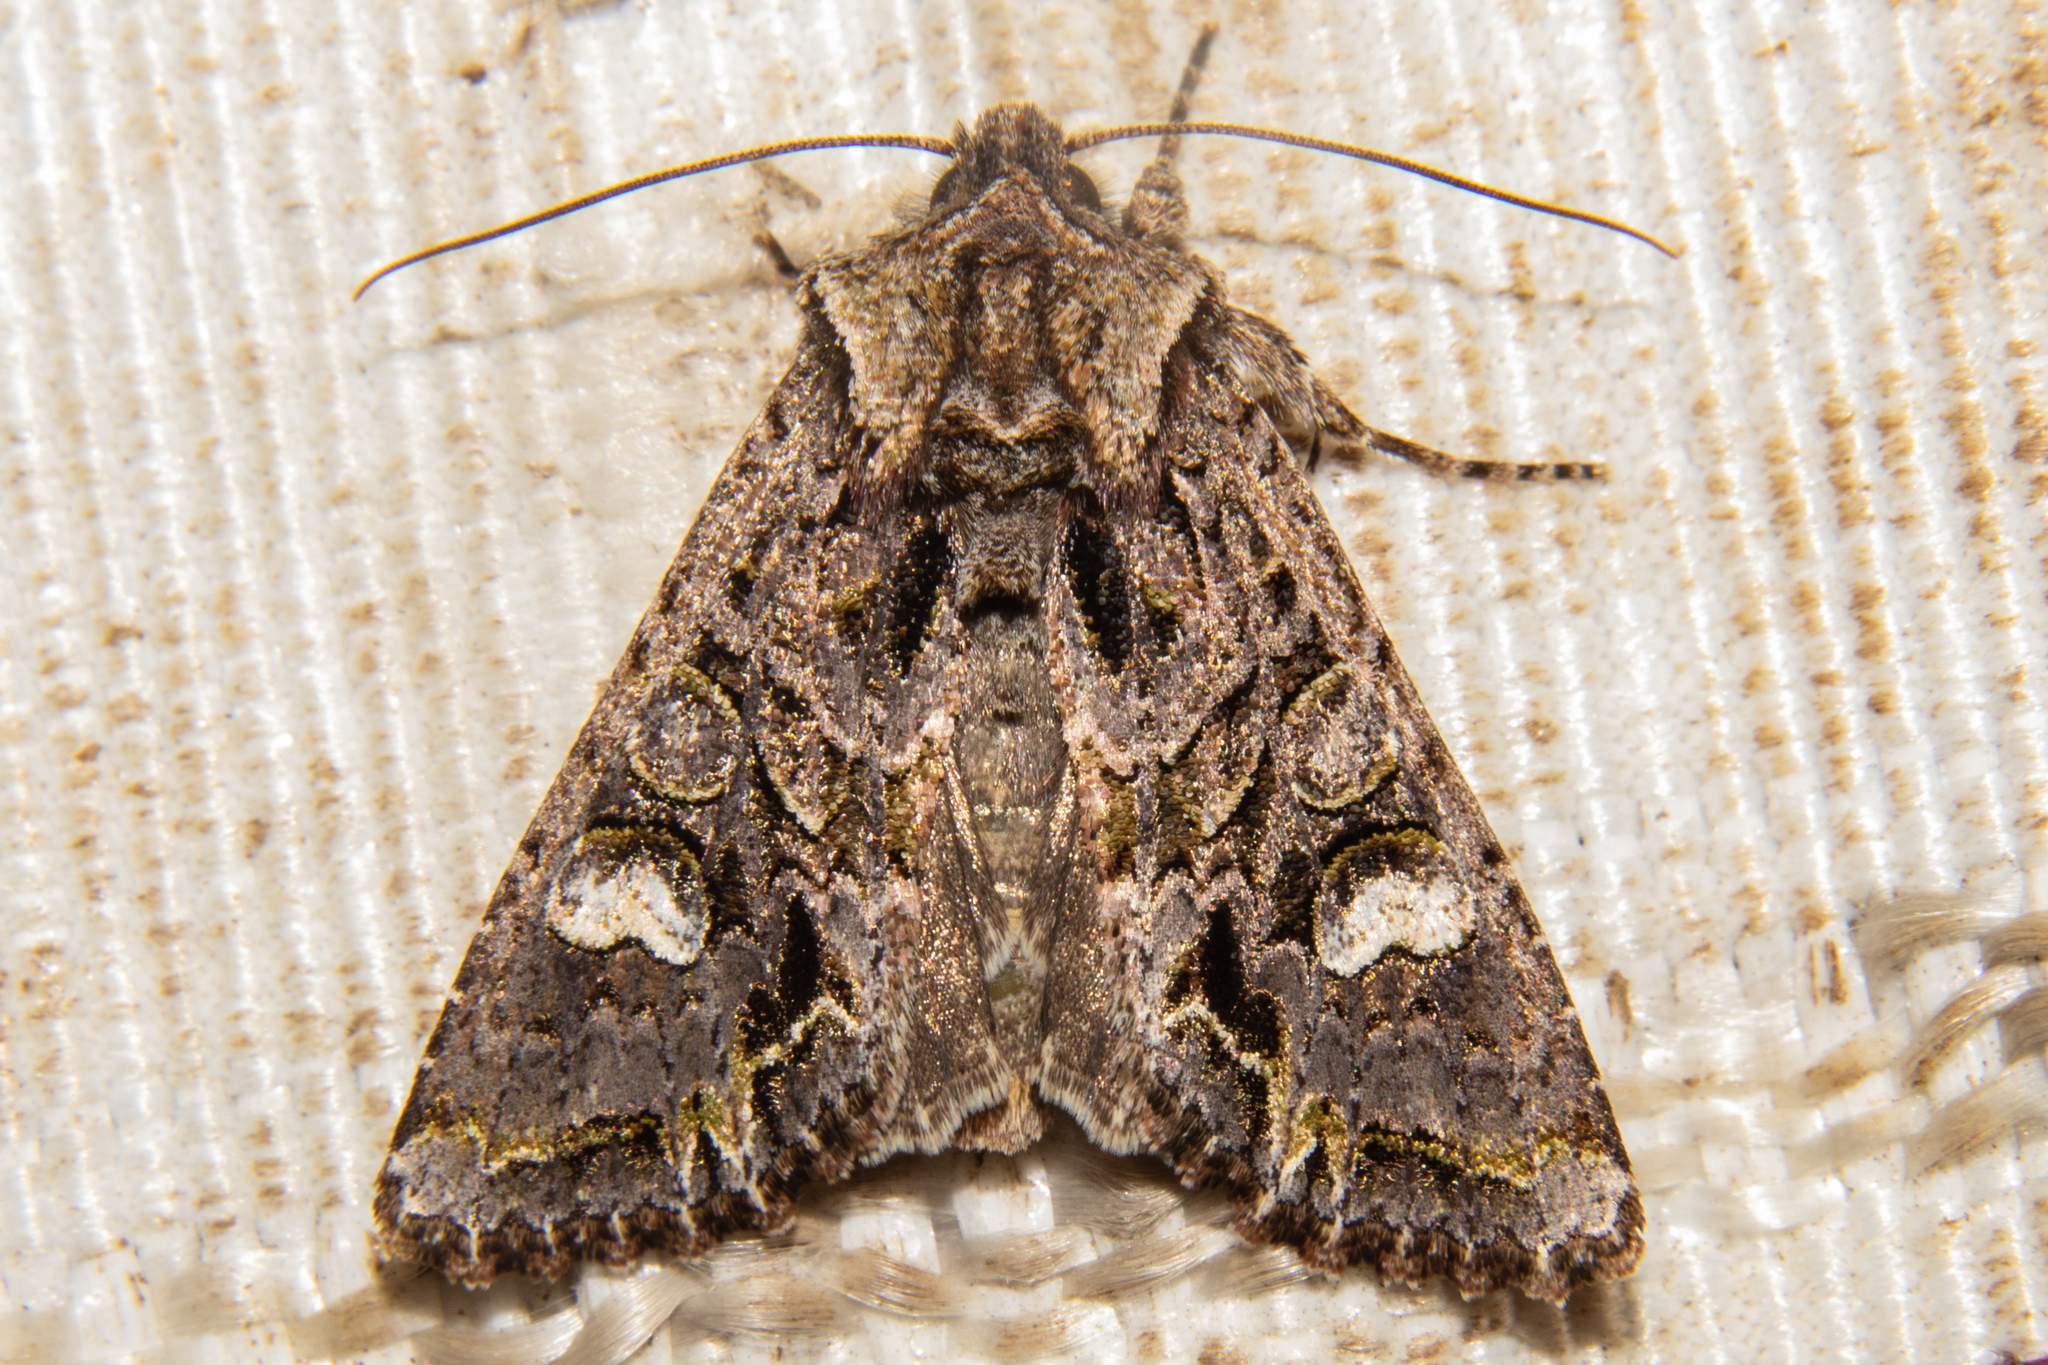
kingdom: Animalia
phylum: Arthropoda
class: Insecta
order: Lepidoptera
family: Noctuidae
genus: Ichneutica
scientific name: Ichneutica insignis
